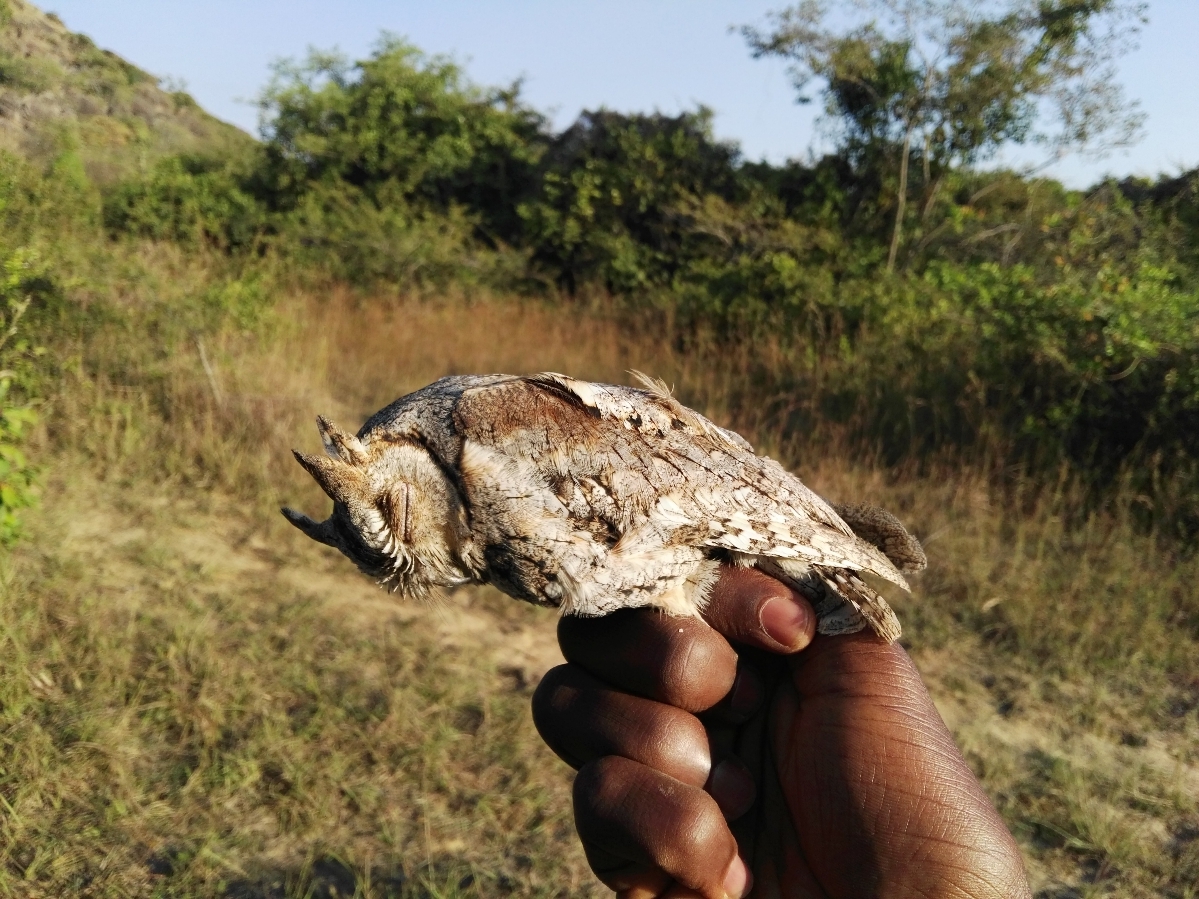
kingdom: Animalia
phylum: Chordata
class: Aves
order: Strigiformes
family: Strigidae
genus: Otus
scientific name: Otus senegalensis
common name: African scops owl
